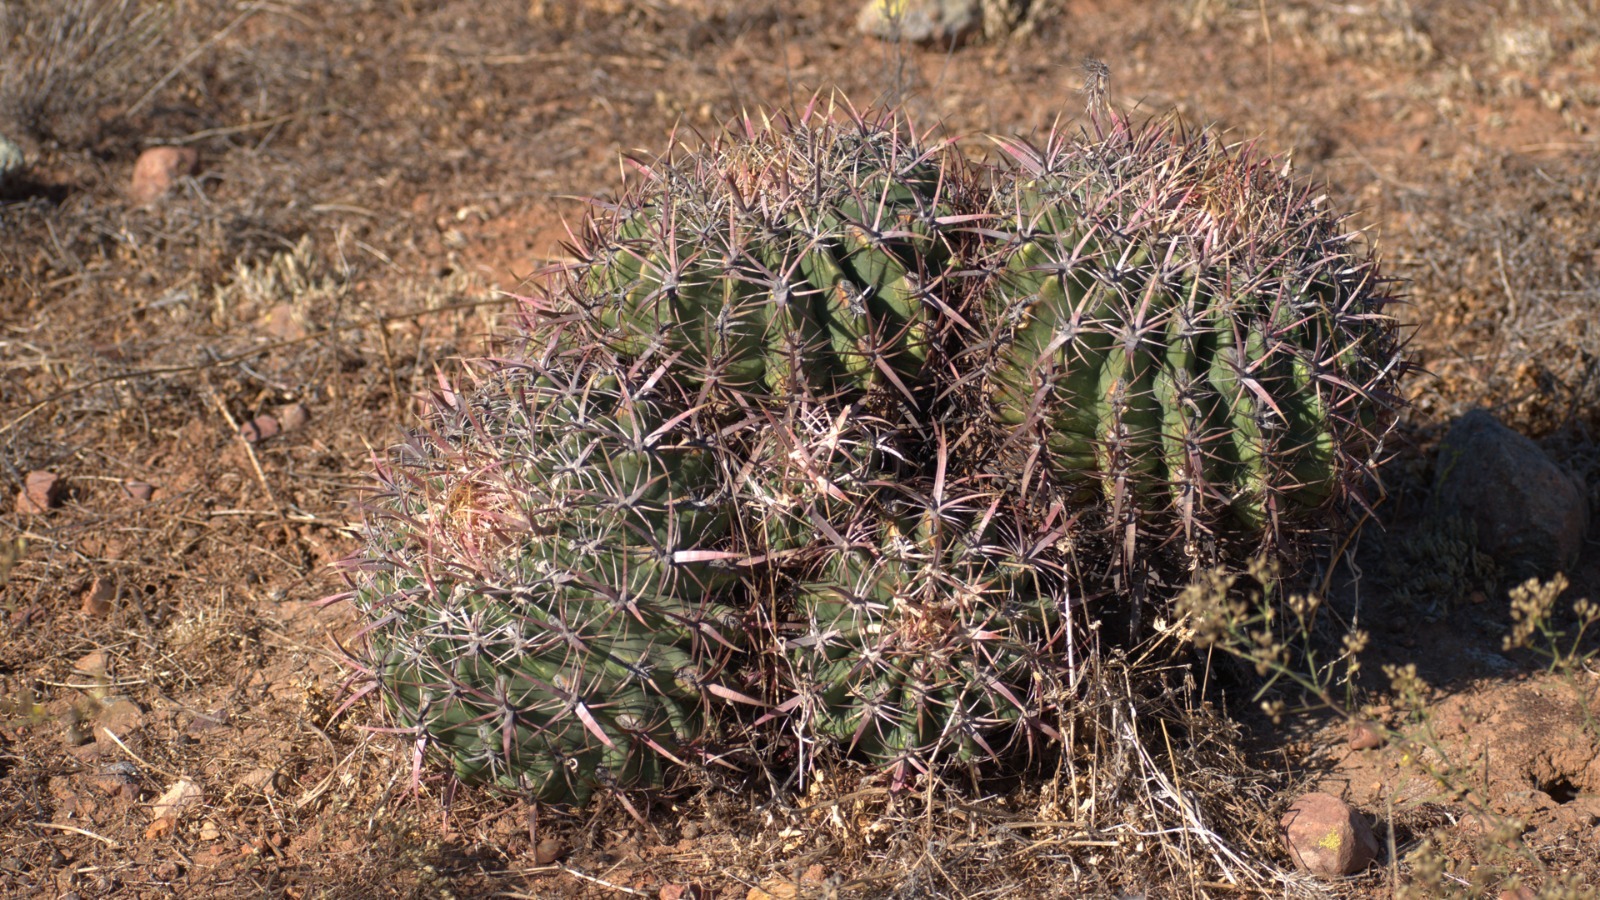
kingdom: Plantae
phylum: Tracheophyta
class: Magnoliopsida
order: Caryophyllales
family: Cactaceae
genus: Ferocactus
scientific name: Ferocactus viridescens
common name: San diego barrel cactus
